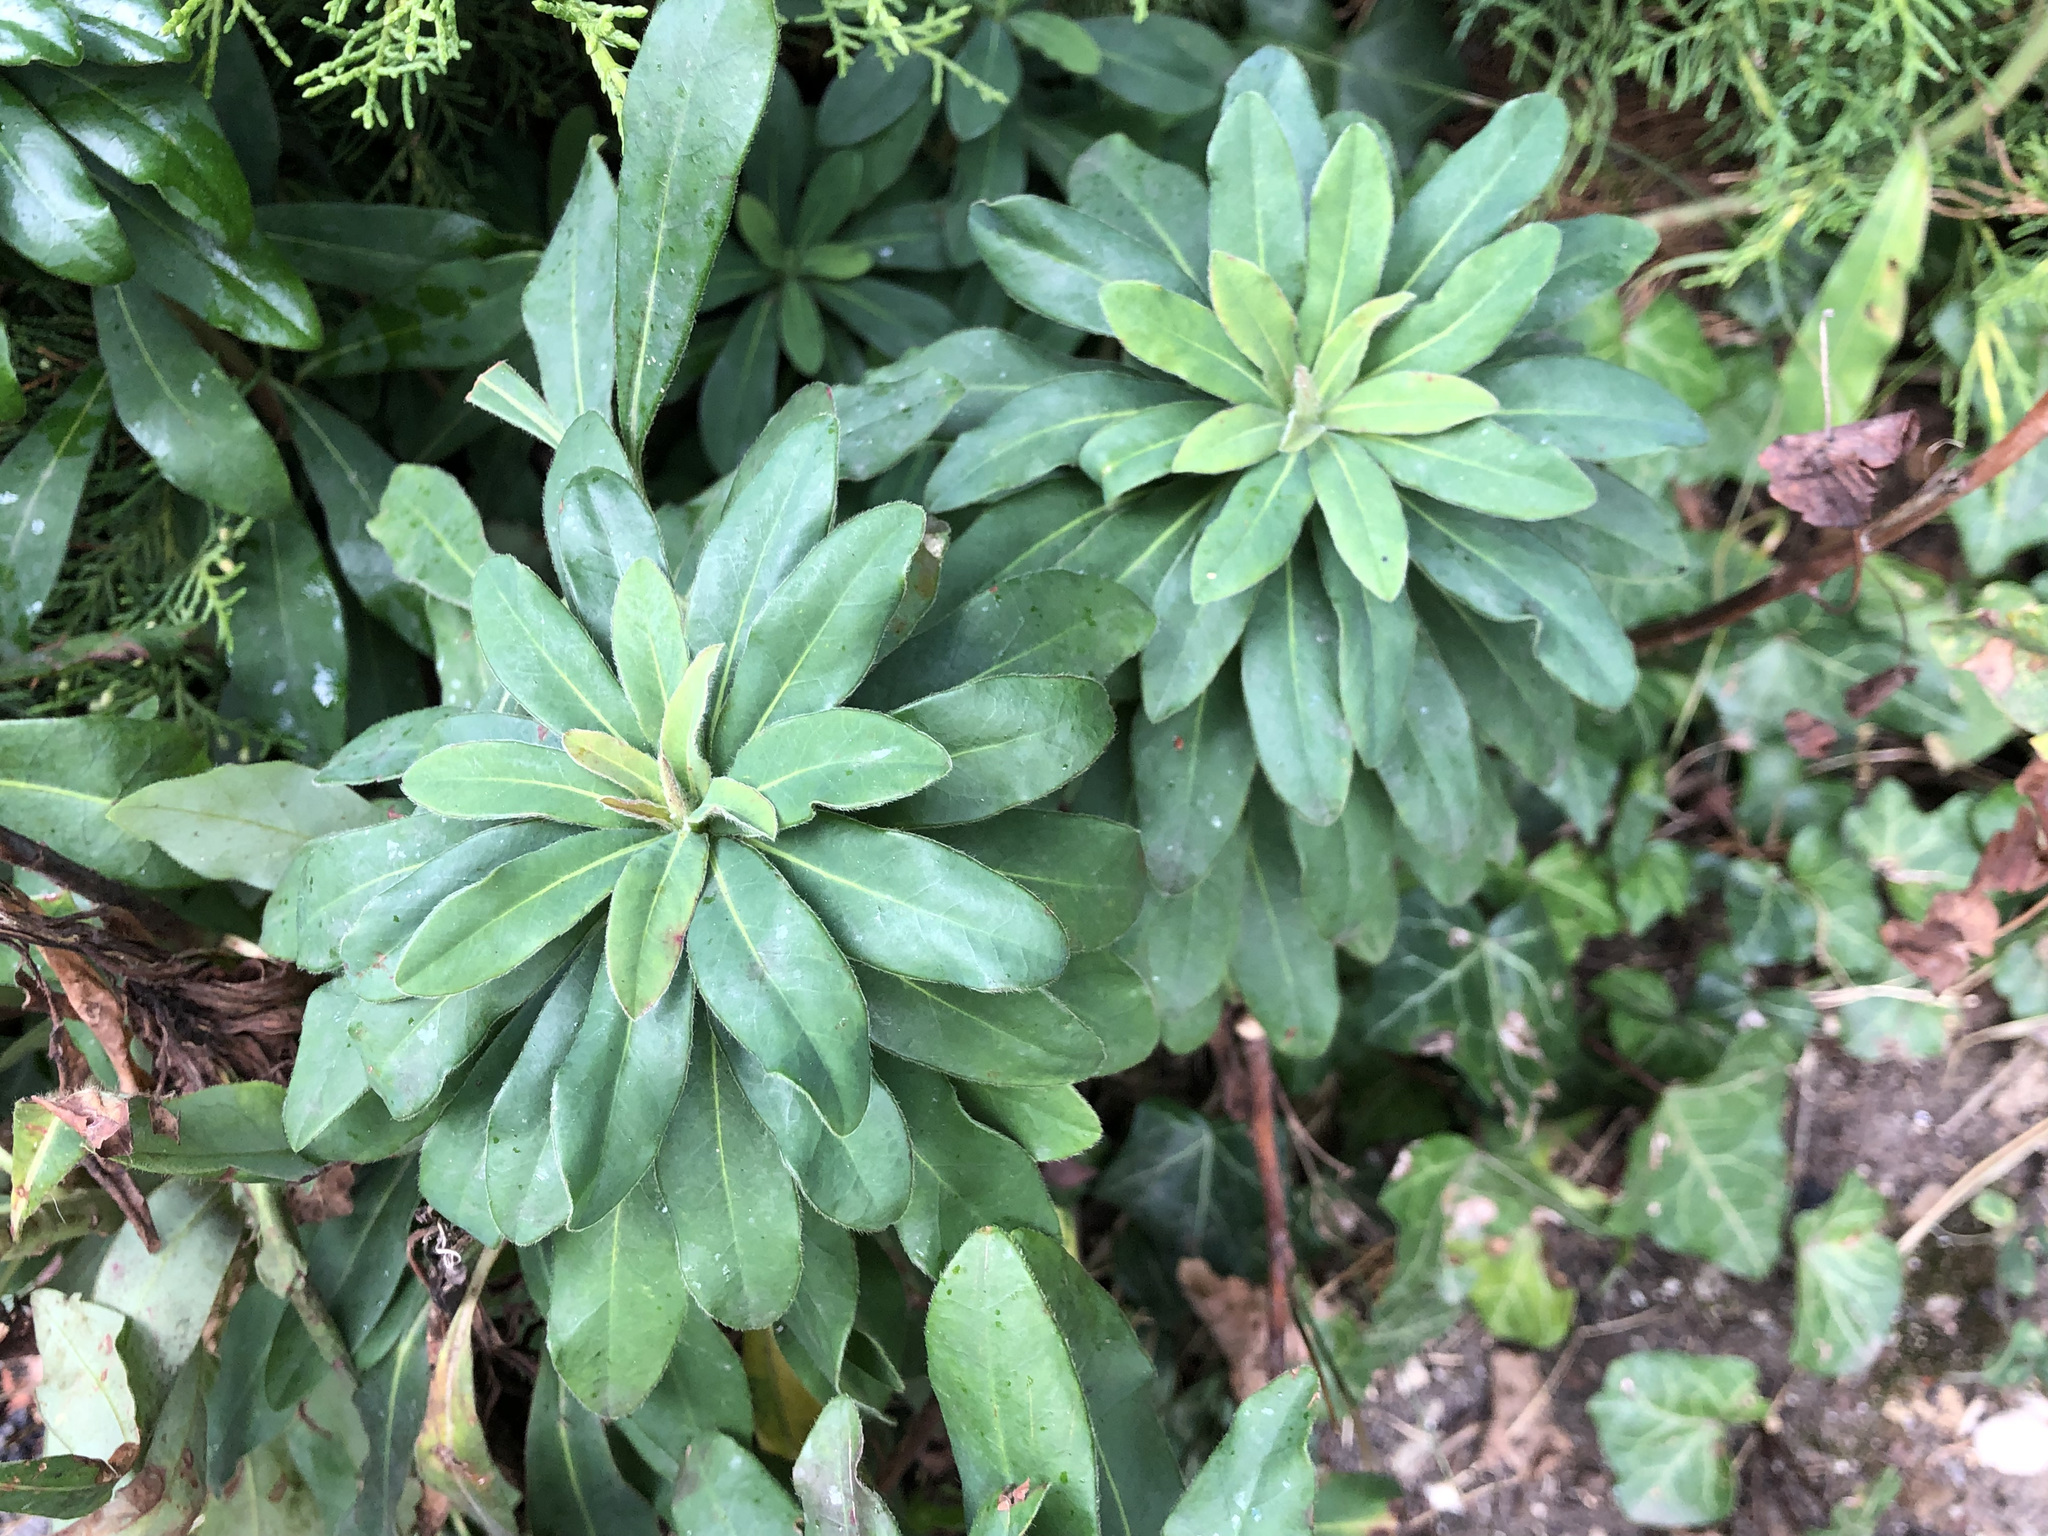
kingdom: Plantae
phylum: Tracheophyta
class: Magnoliopsida
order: Malpighiales
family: Euphorbiaceae
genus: Euphorbia
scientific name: Euphorbia amygdaloides
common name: Wood spurge
